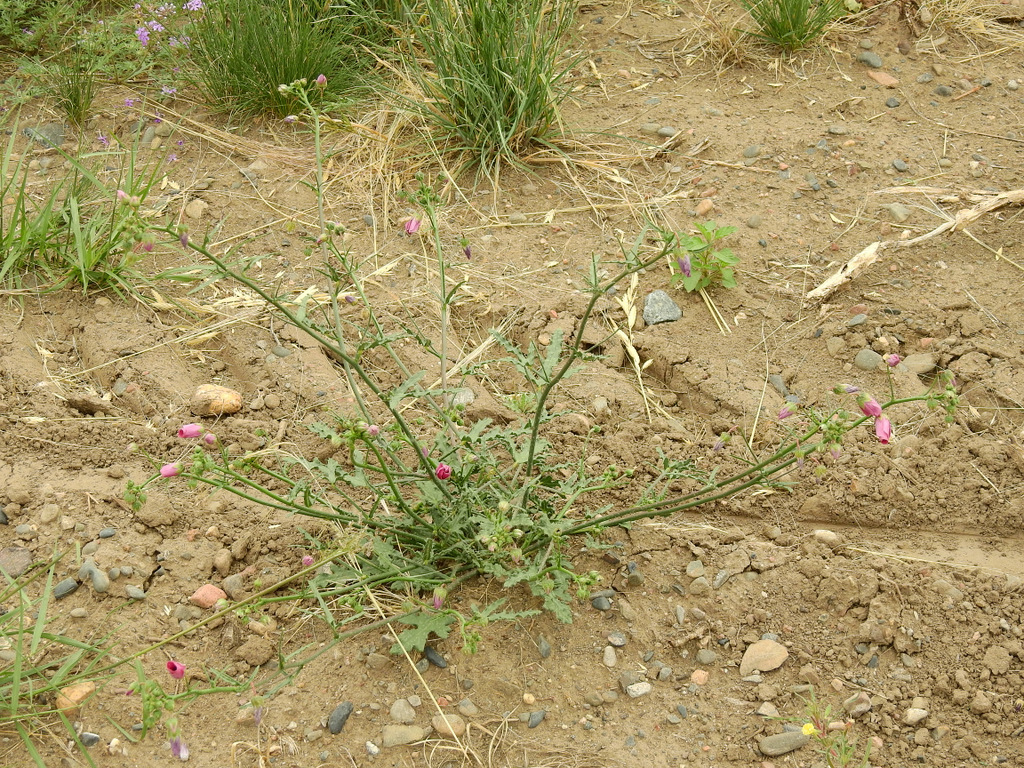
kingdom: Plantae
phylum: Tracheophyta
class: Magnoliopsida
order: Malvales
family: Malvaceae
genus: Lecanophora
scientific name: Lecanophora heterophylla
